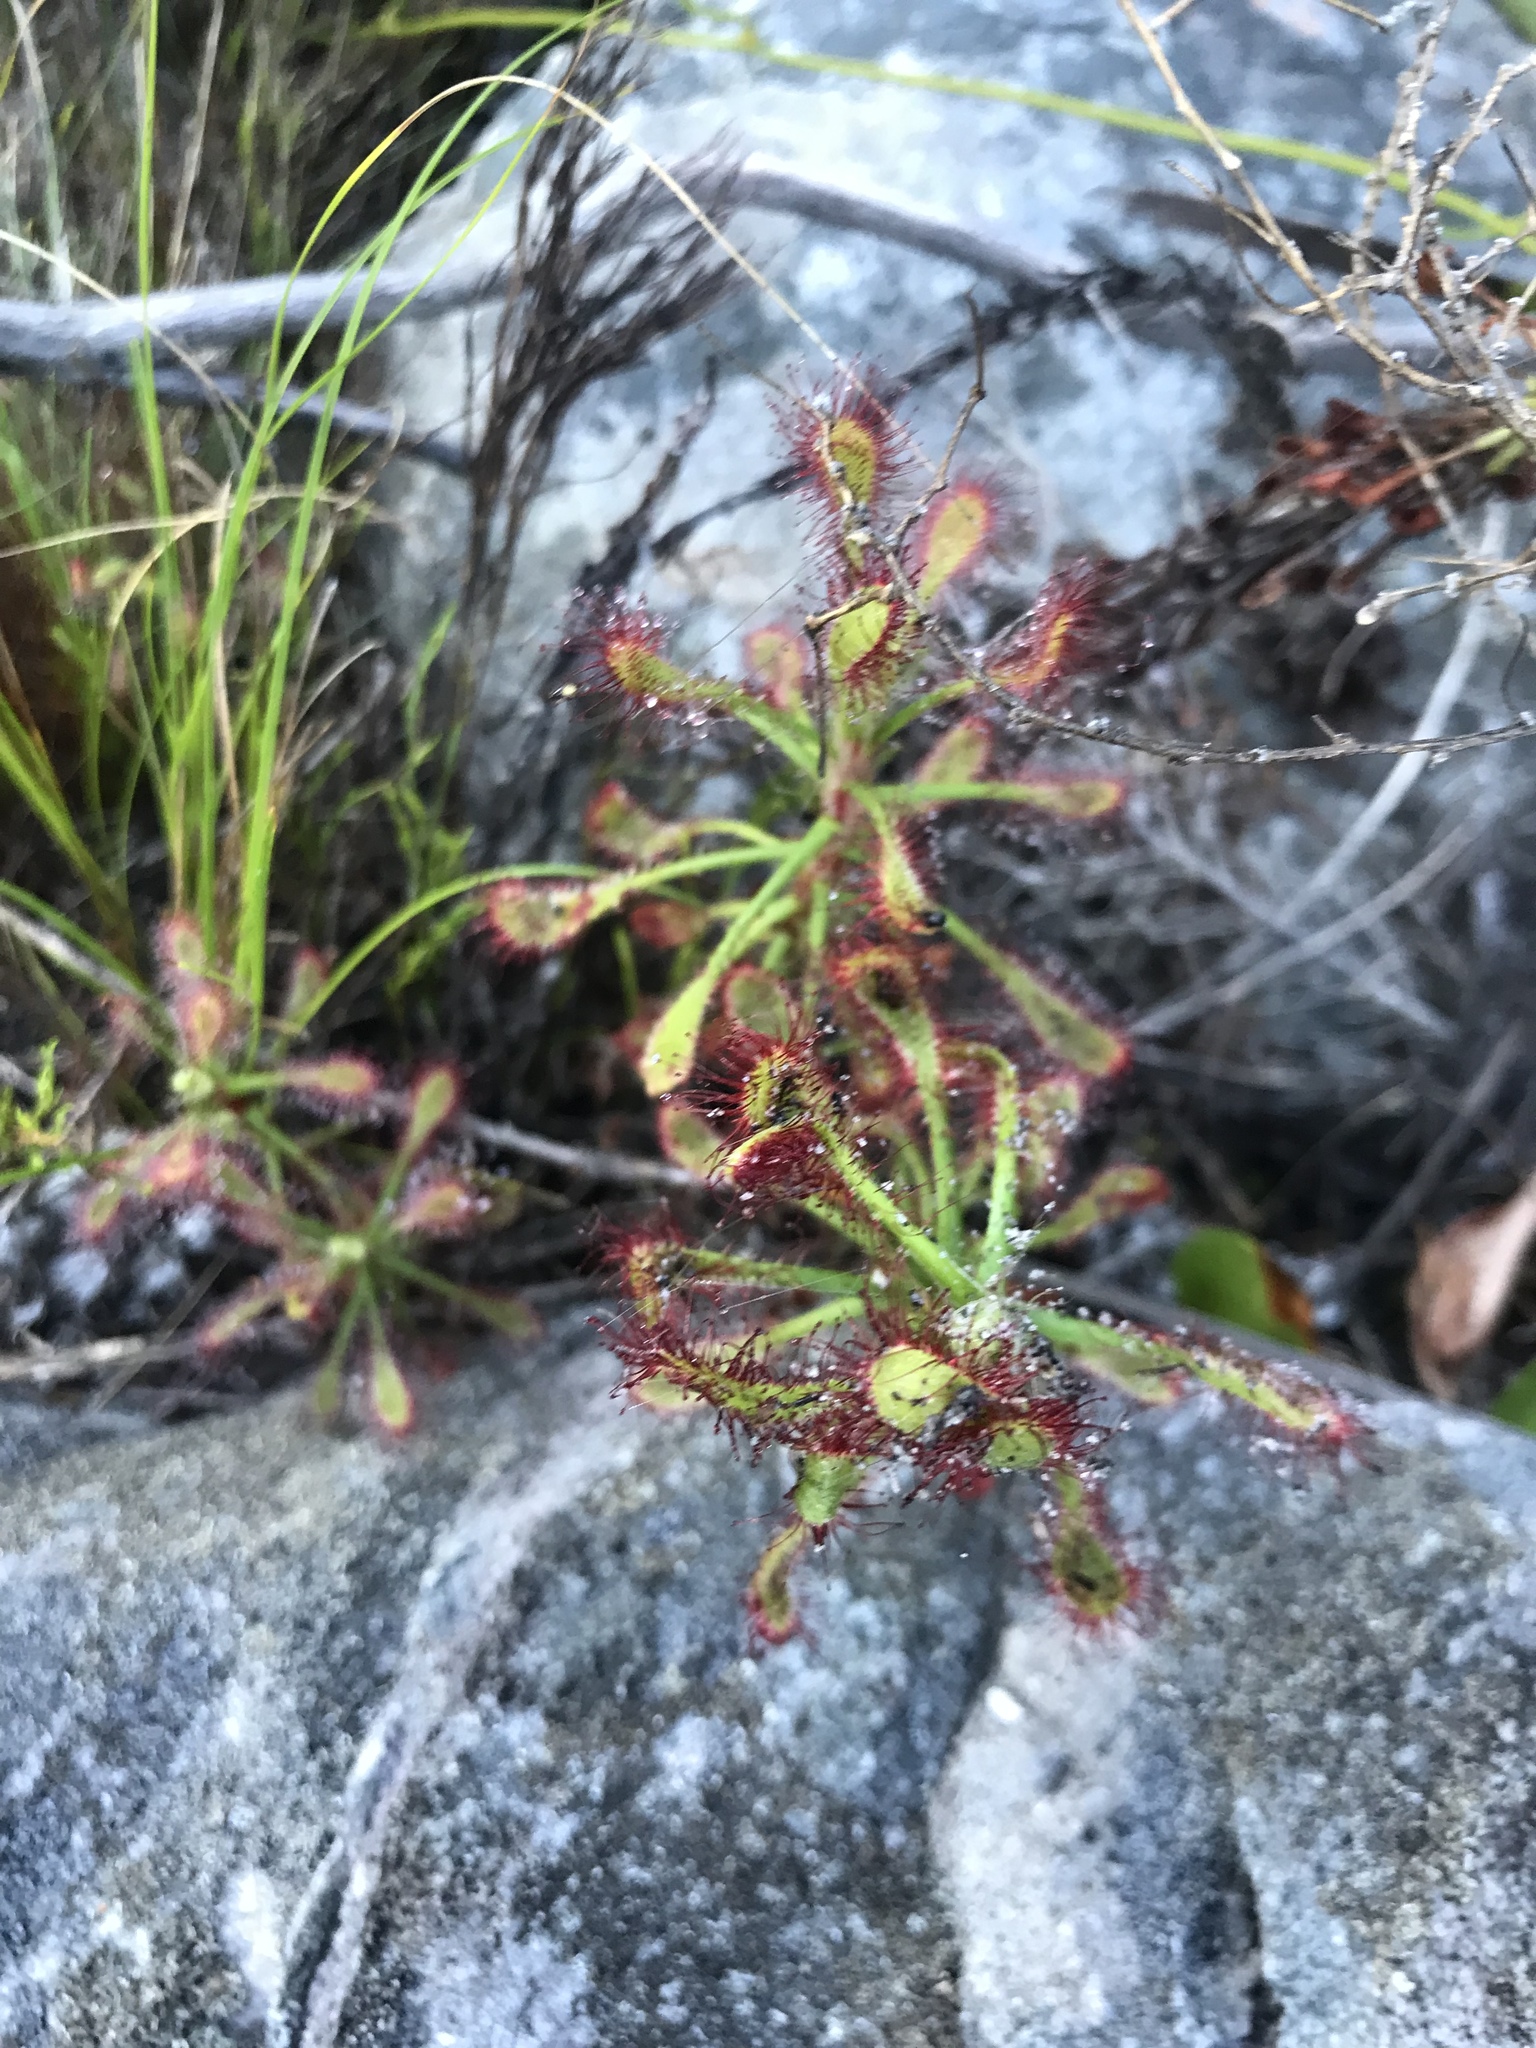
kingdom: Plantae
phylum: Tracheophyta
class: Magnoliopsida
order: Caryophyllales
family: Droseraceae
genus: Drosera
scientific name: Drosera glabripes
